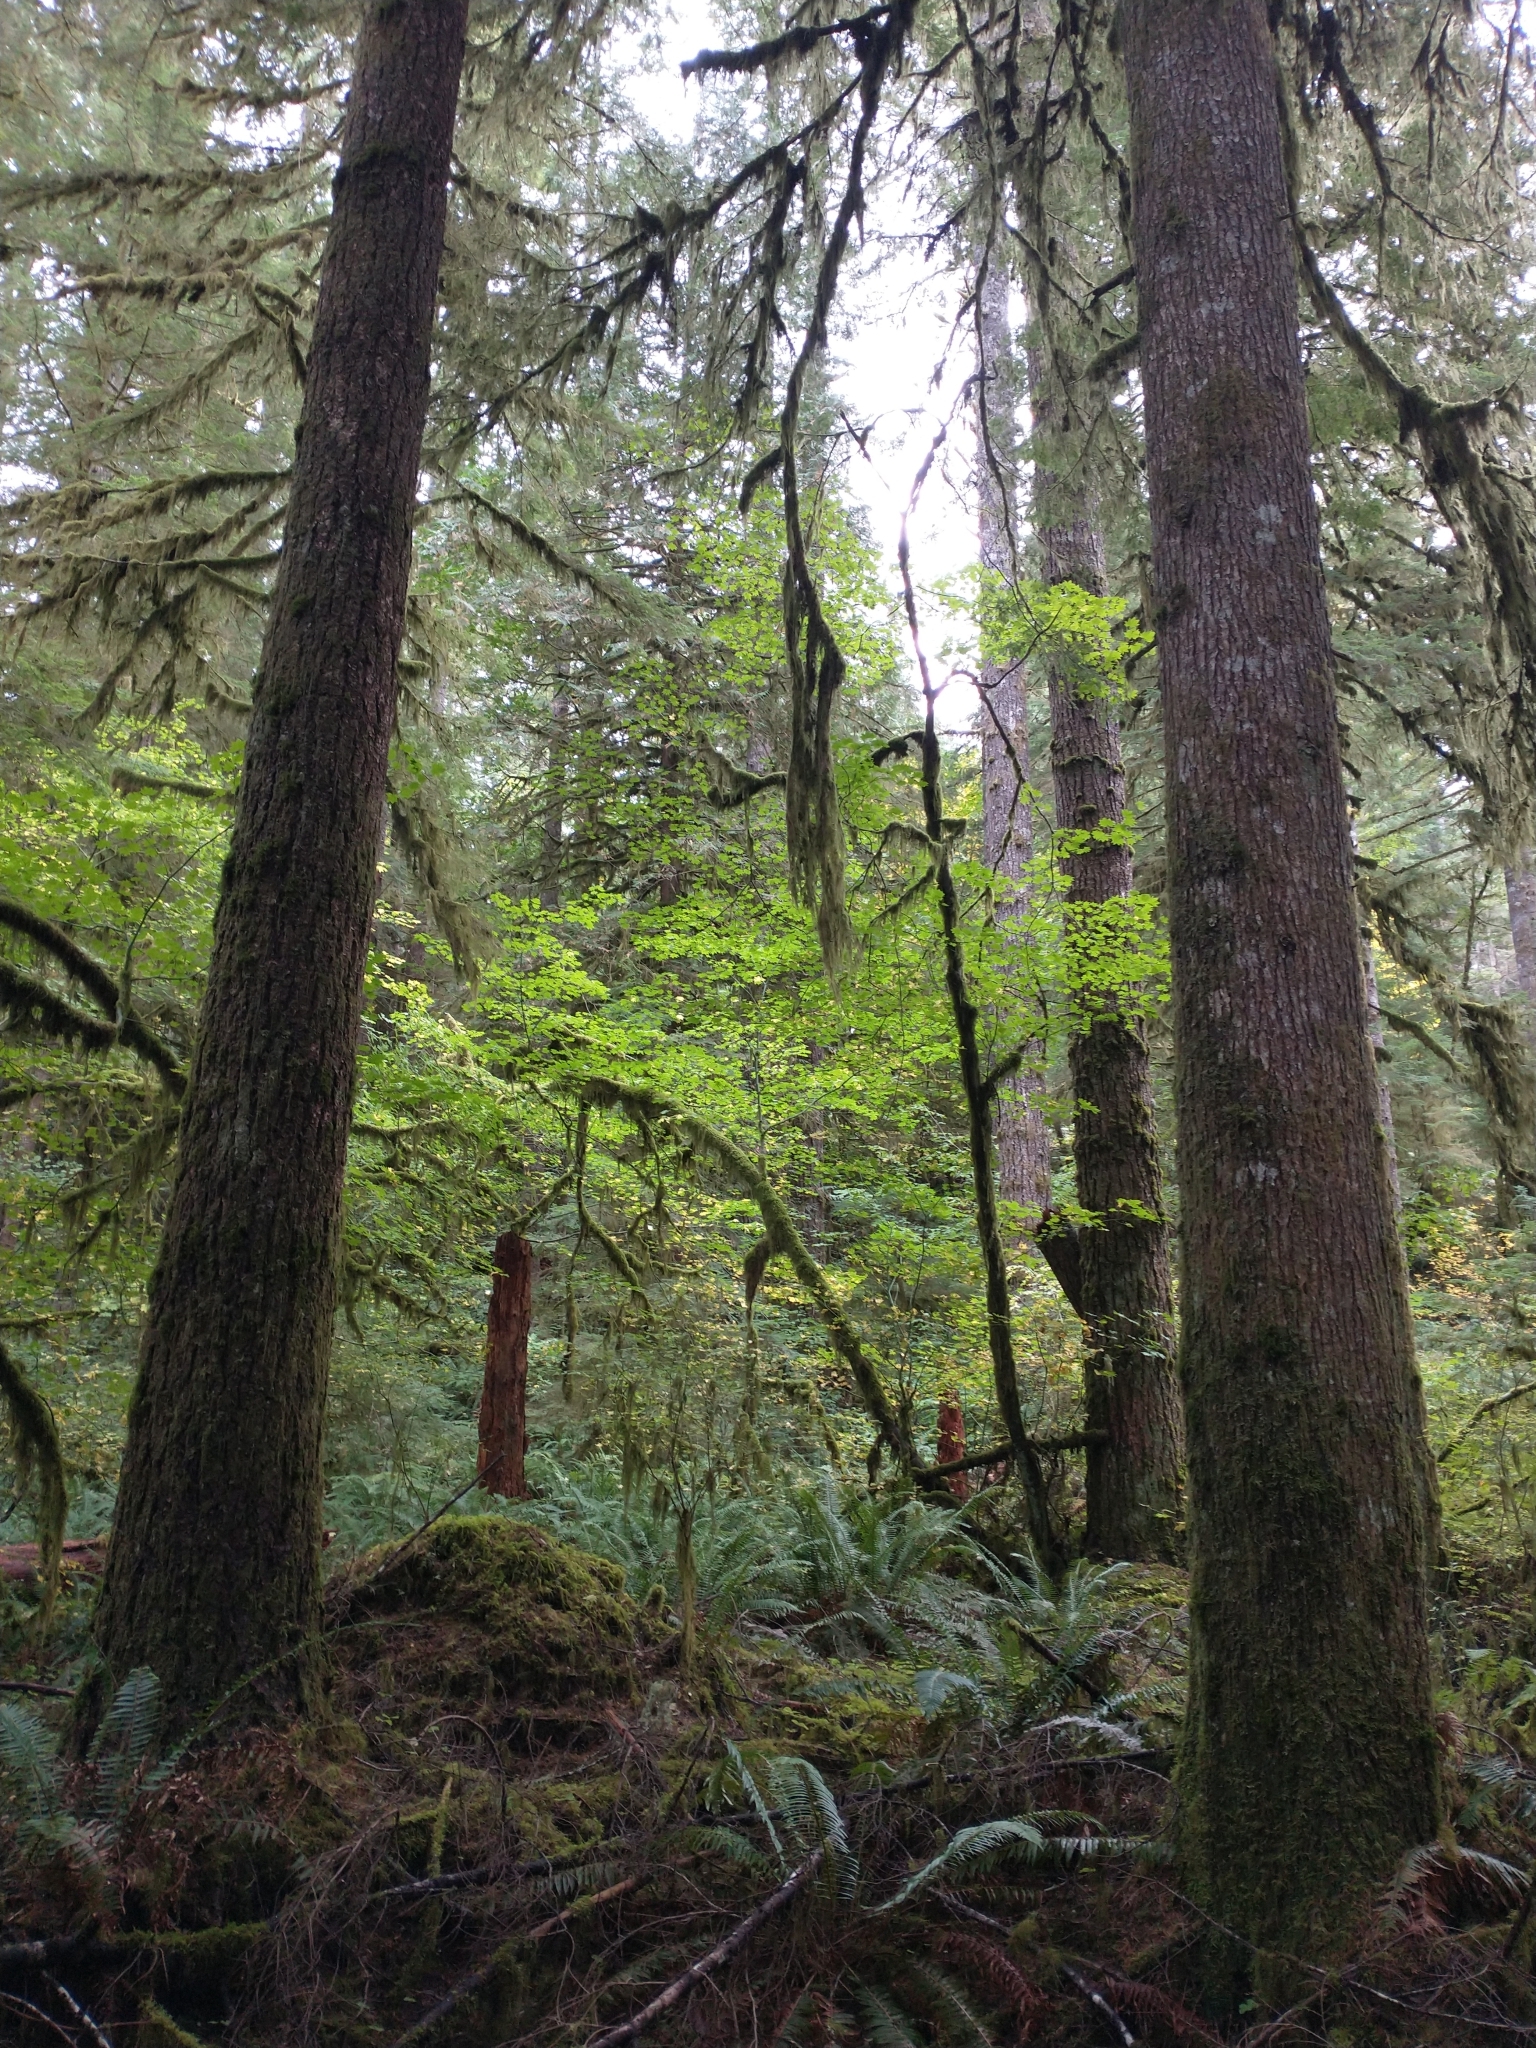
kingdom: Plantae
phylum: Tracheophyta
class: Magnoliopsida
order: Sapindales
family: Sapindaceae
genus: Acer
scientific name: Acer circinatum
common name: Vine maple
